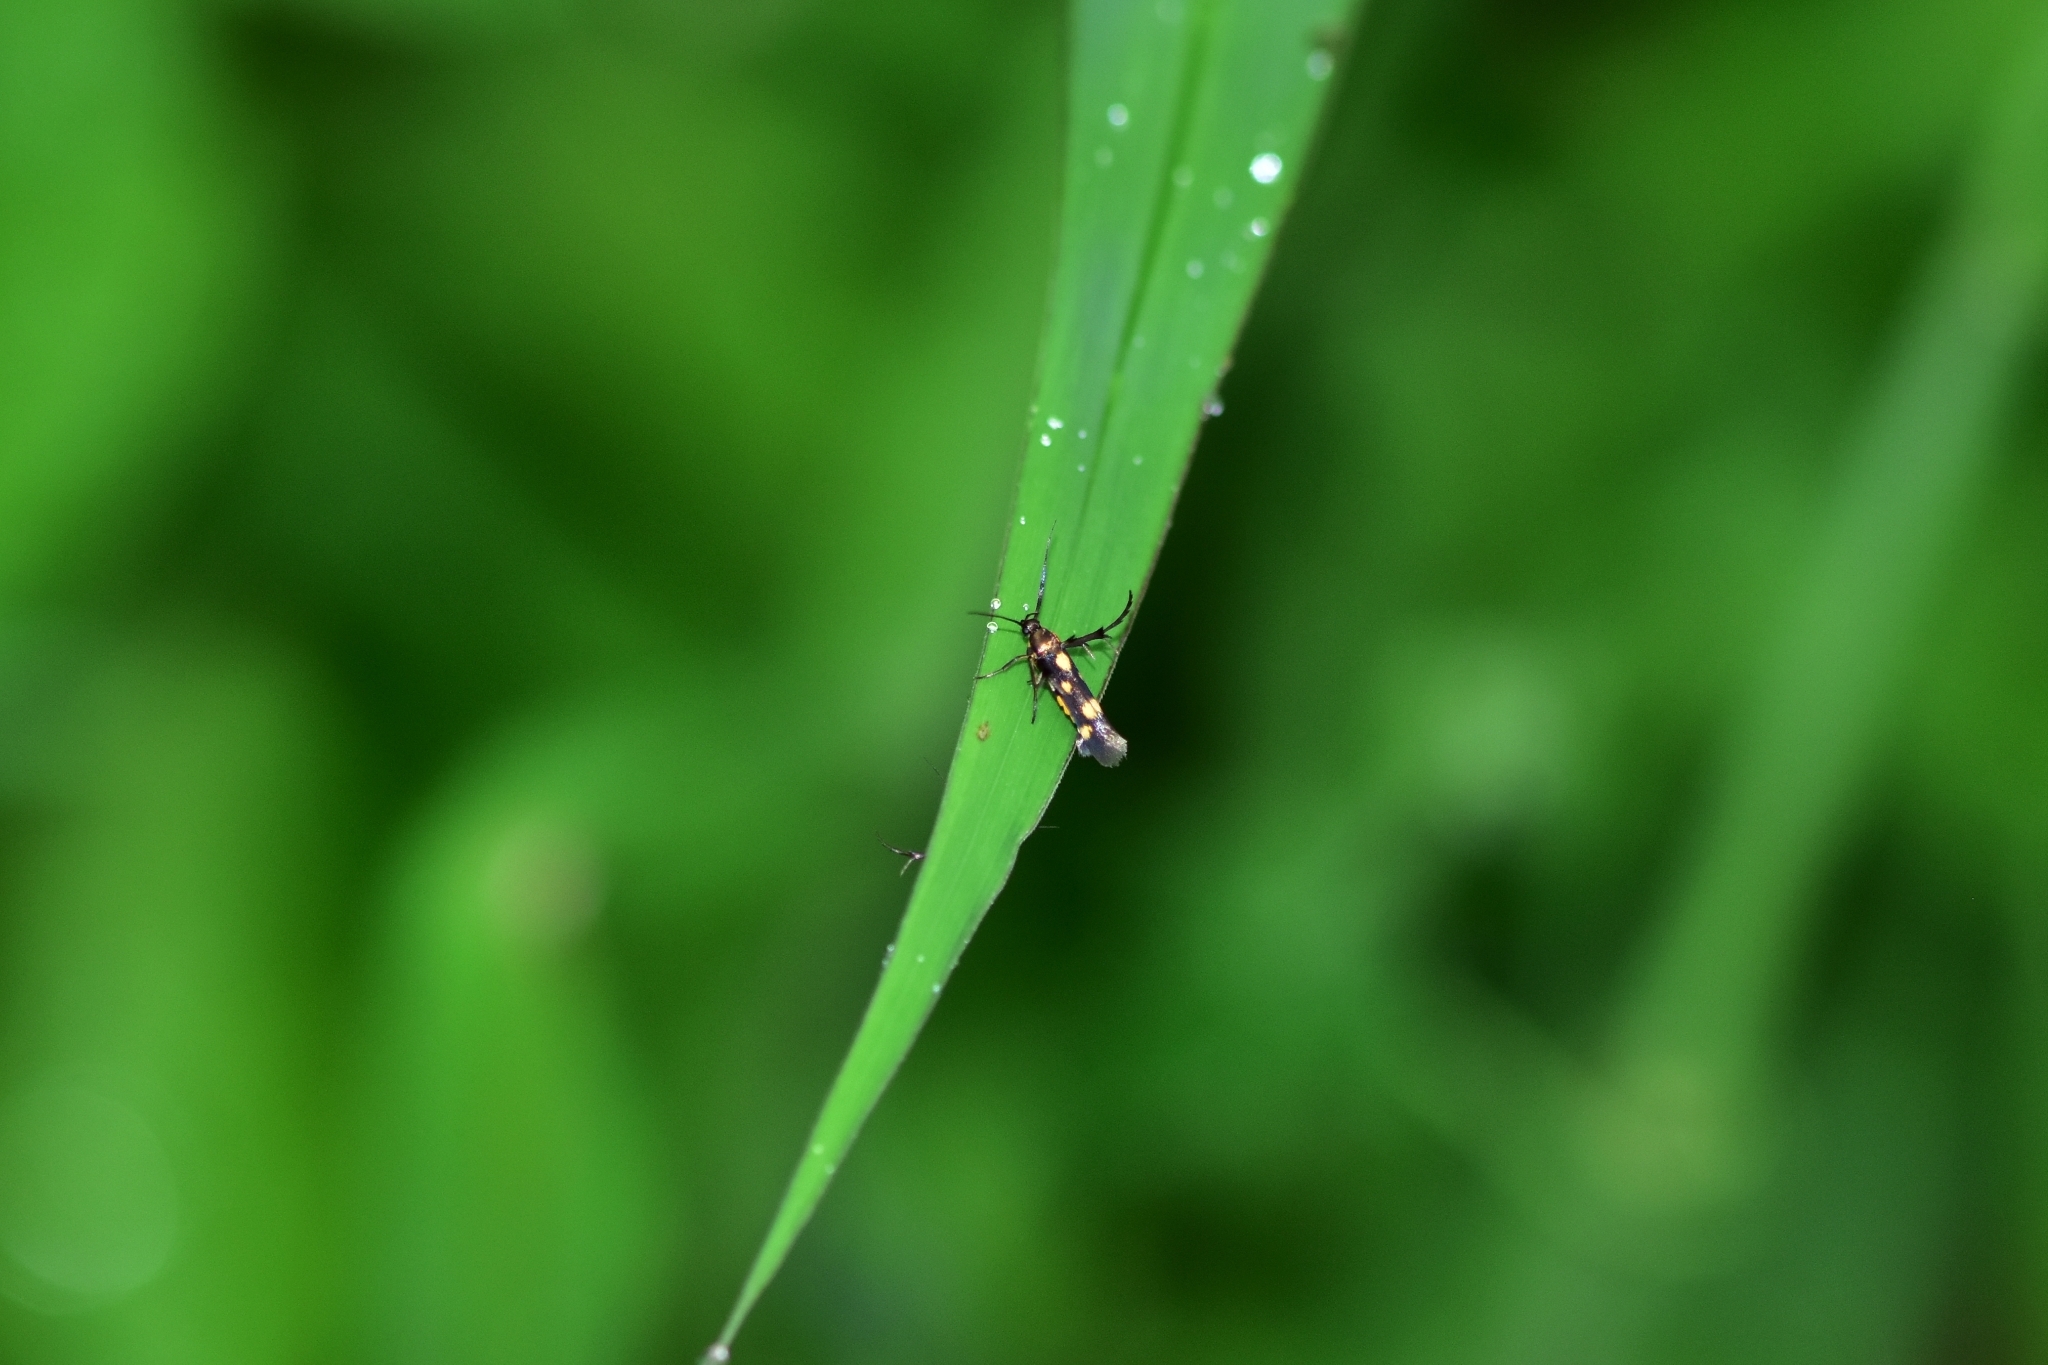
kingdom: Animalia
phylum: Arthropoda
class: Insecta
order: Lepidoptera
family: Scythrididae
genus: Eretmocera
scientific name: Eretmocera
